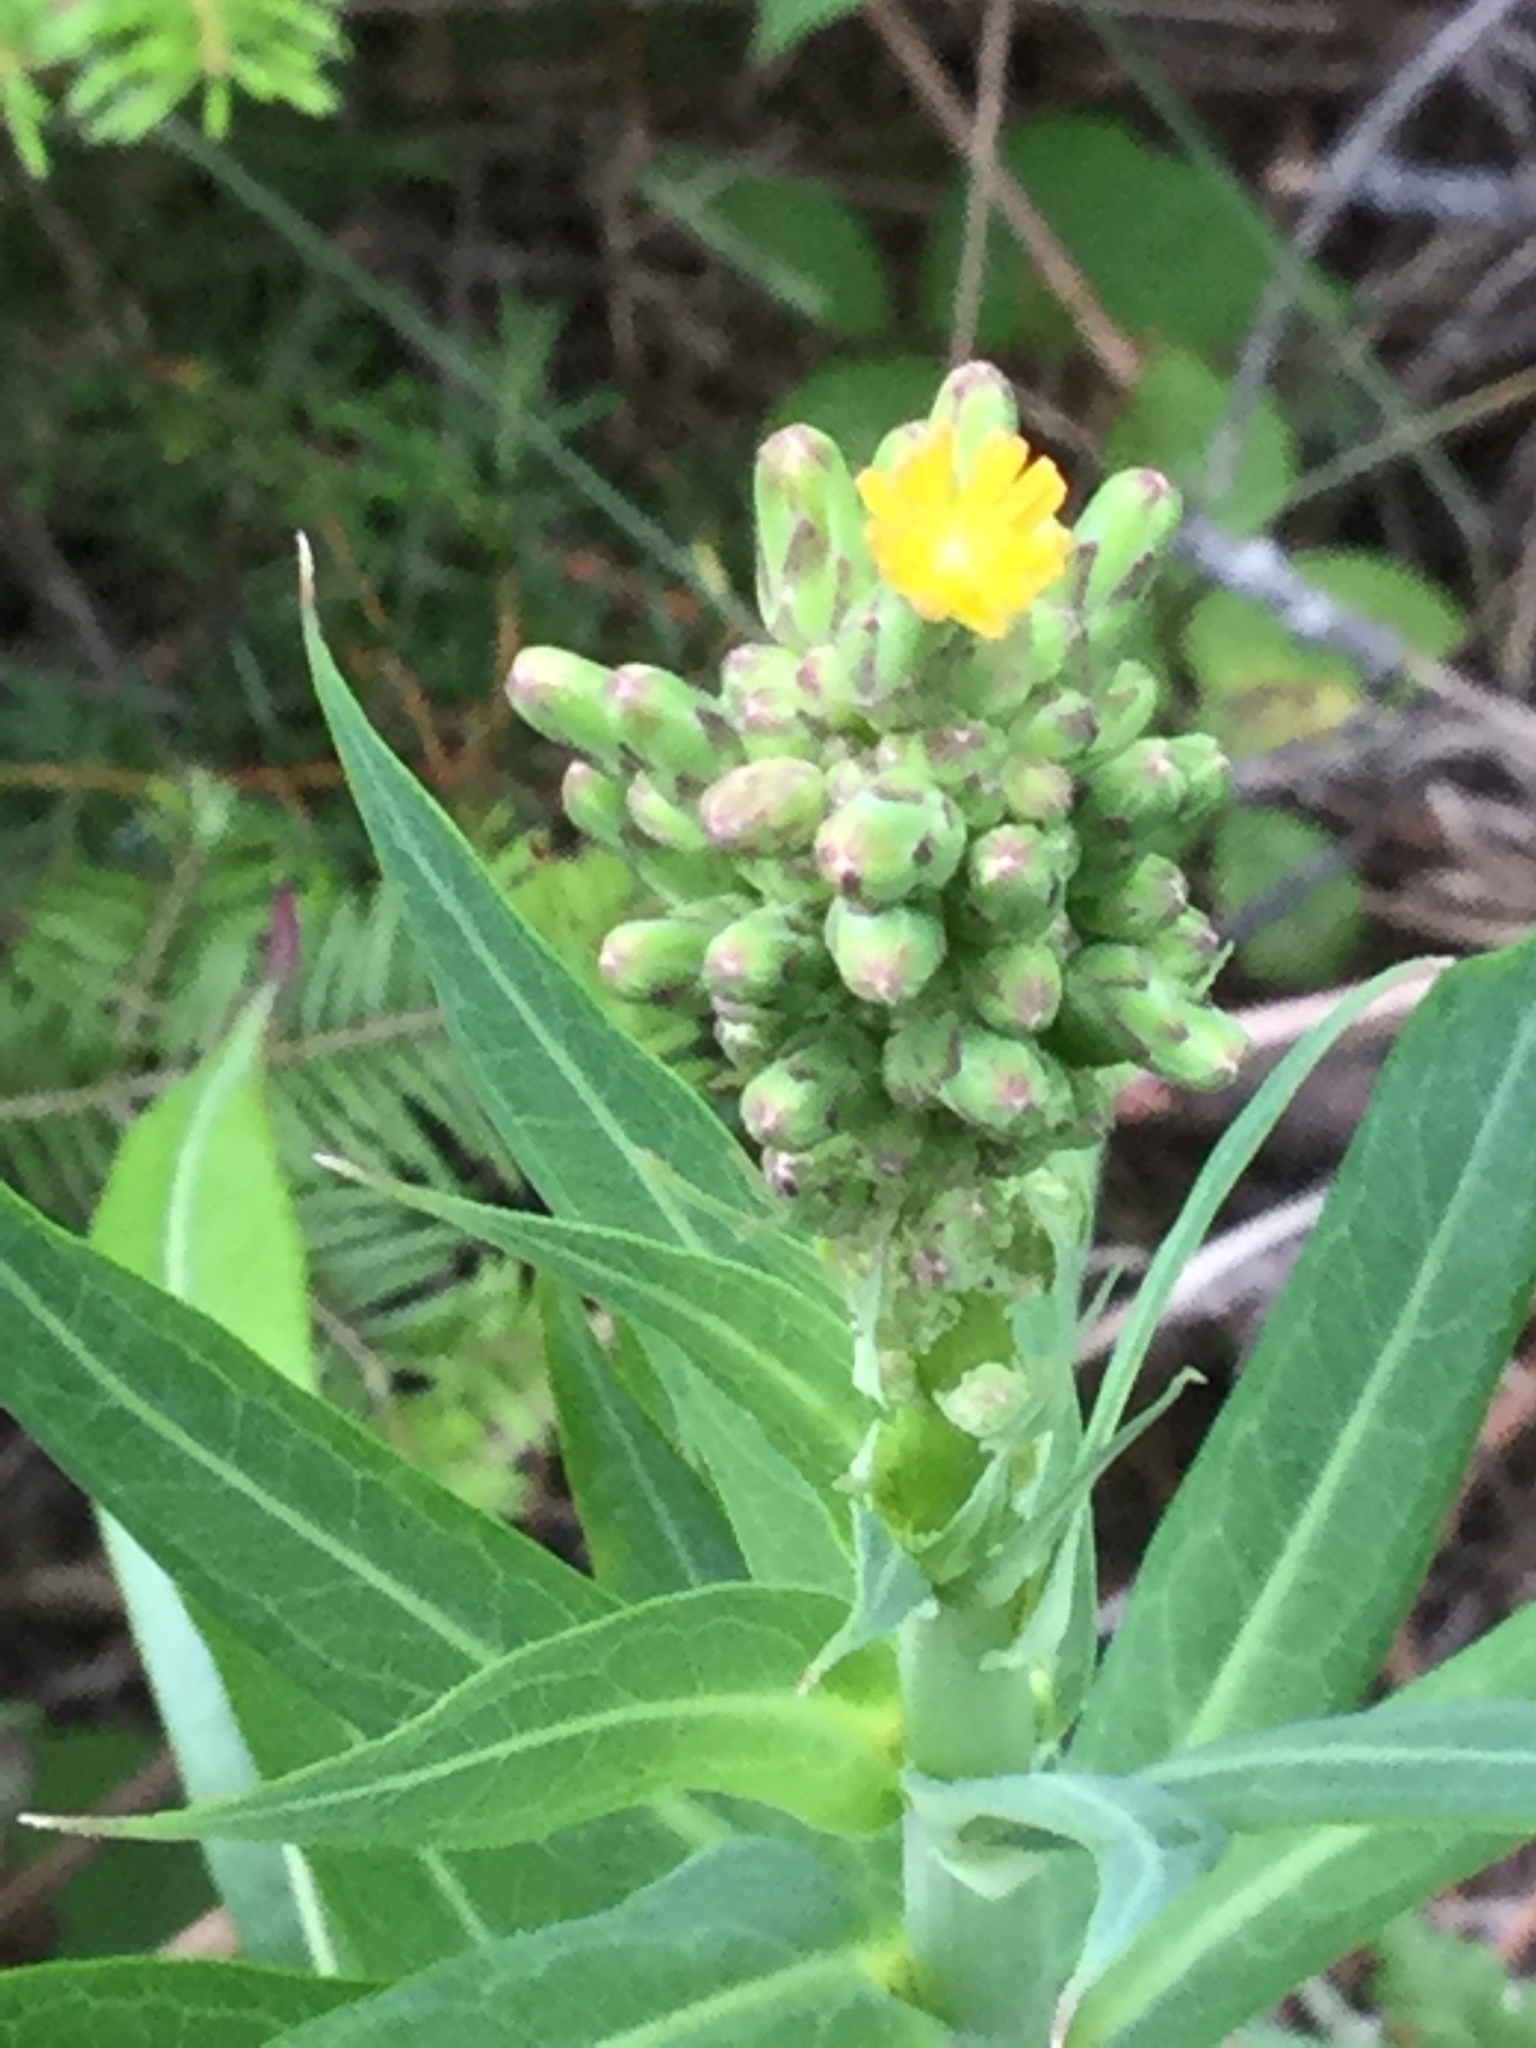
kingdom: Plantae
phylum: Tracheophyta
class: Magnoliopsida
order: Asterales
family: Asteraceae
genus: Lactuca
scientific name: Lactuca canadensis
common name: Canada lettuce
